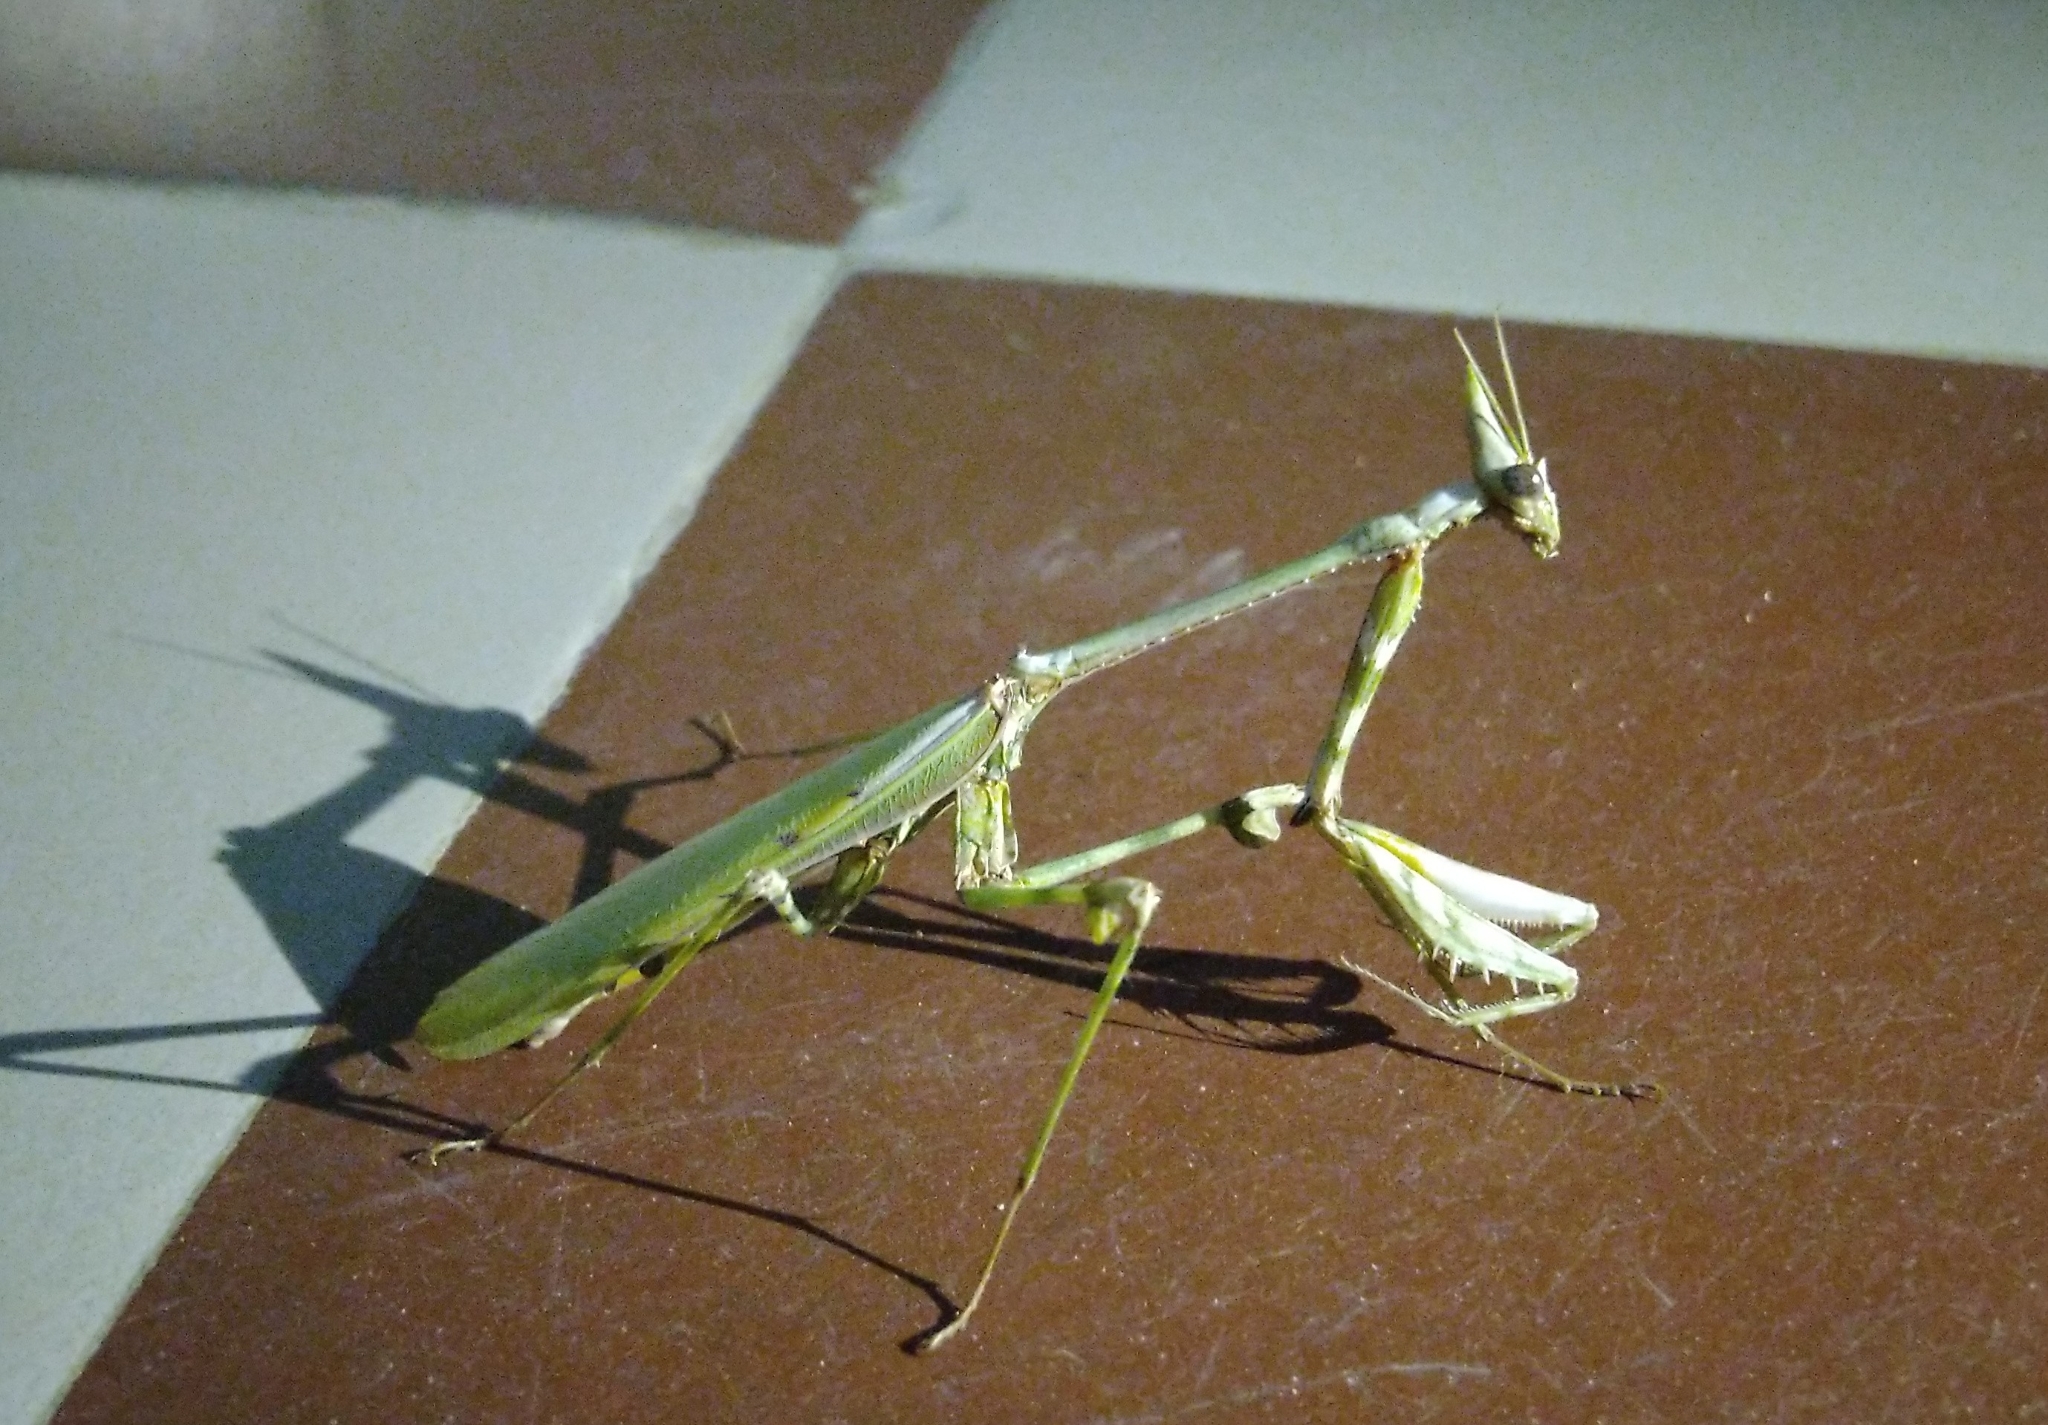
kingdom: Animalia
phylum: Arthropoda
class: Insecta
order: Mantodea
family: Empusidae
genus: Empusa
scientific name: Empusa spinosa
